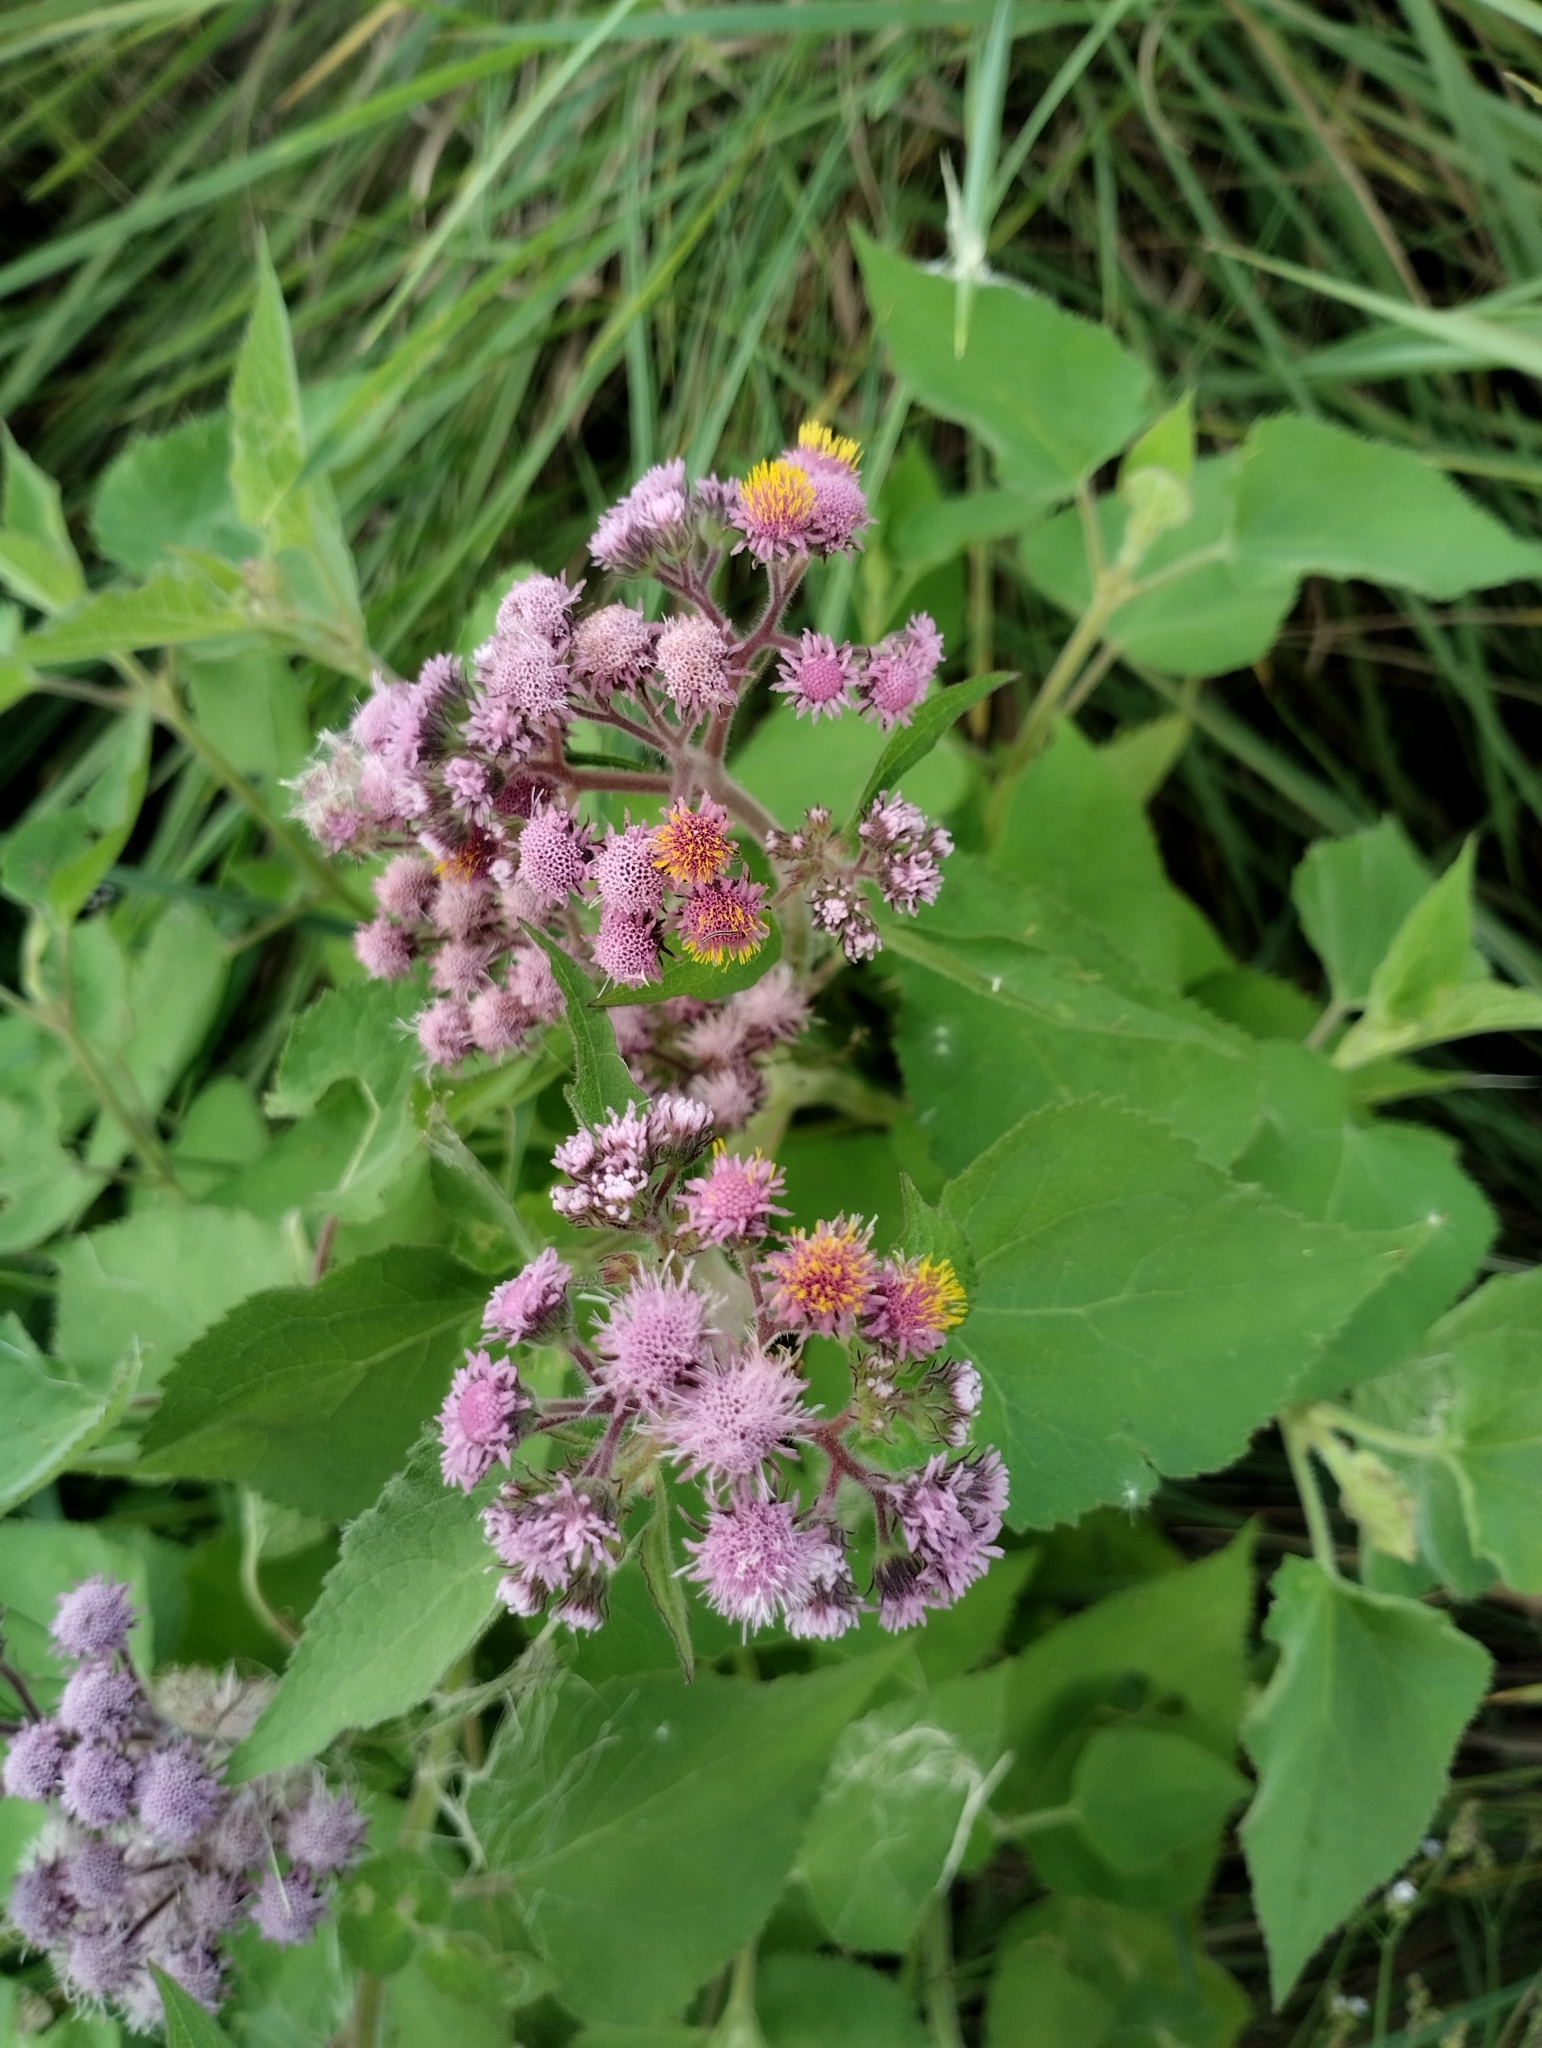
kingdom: Plantae
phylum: Tracheophyta
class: Magnoliopsida
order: Asterales
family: Asteraceae
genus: Urolepis
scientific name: Urolepis hecatantha
